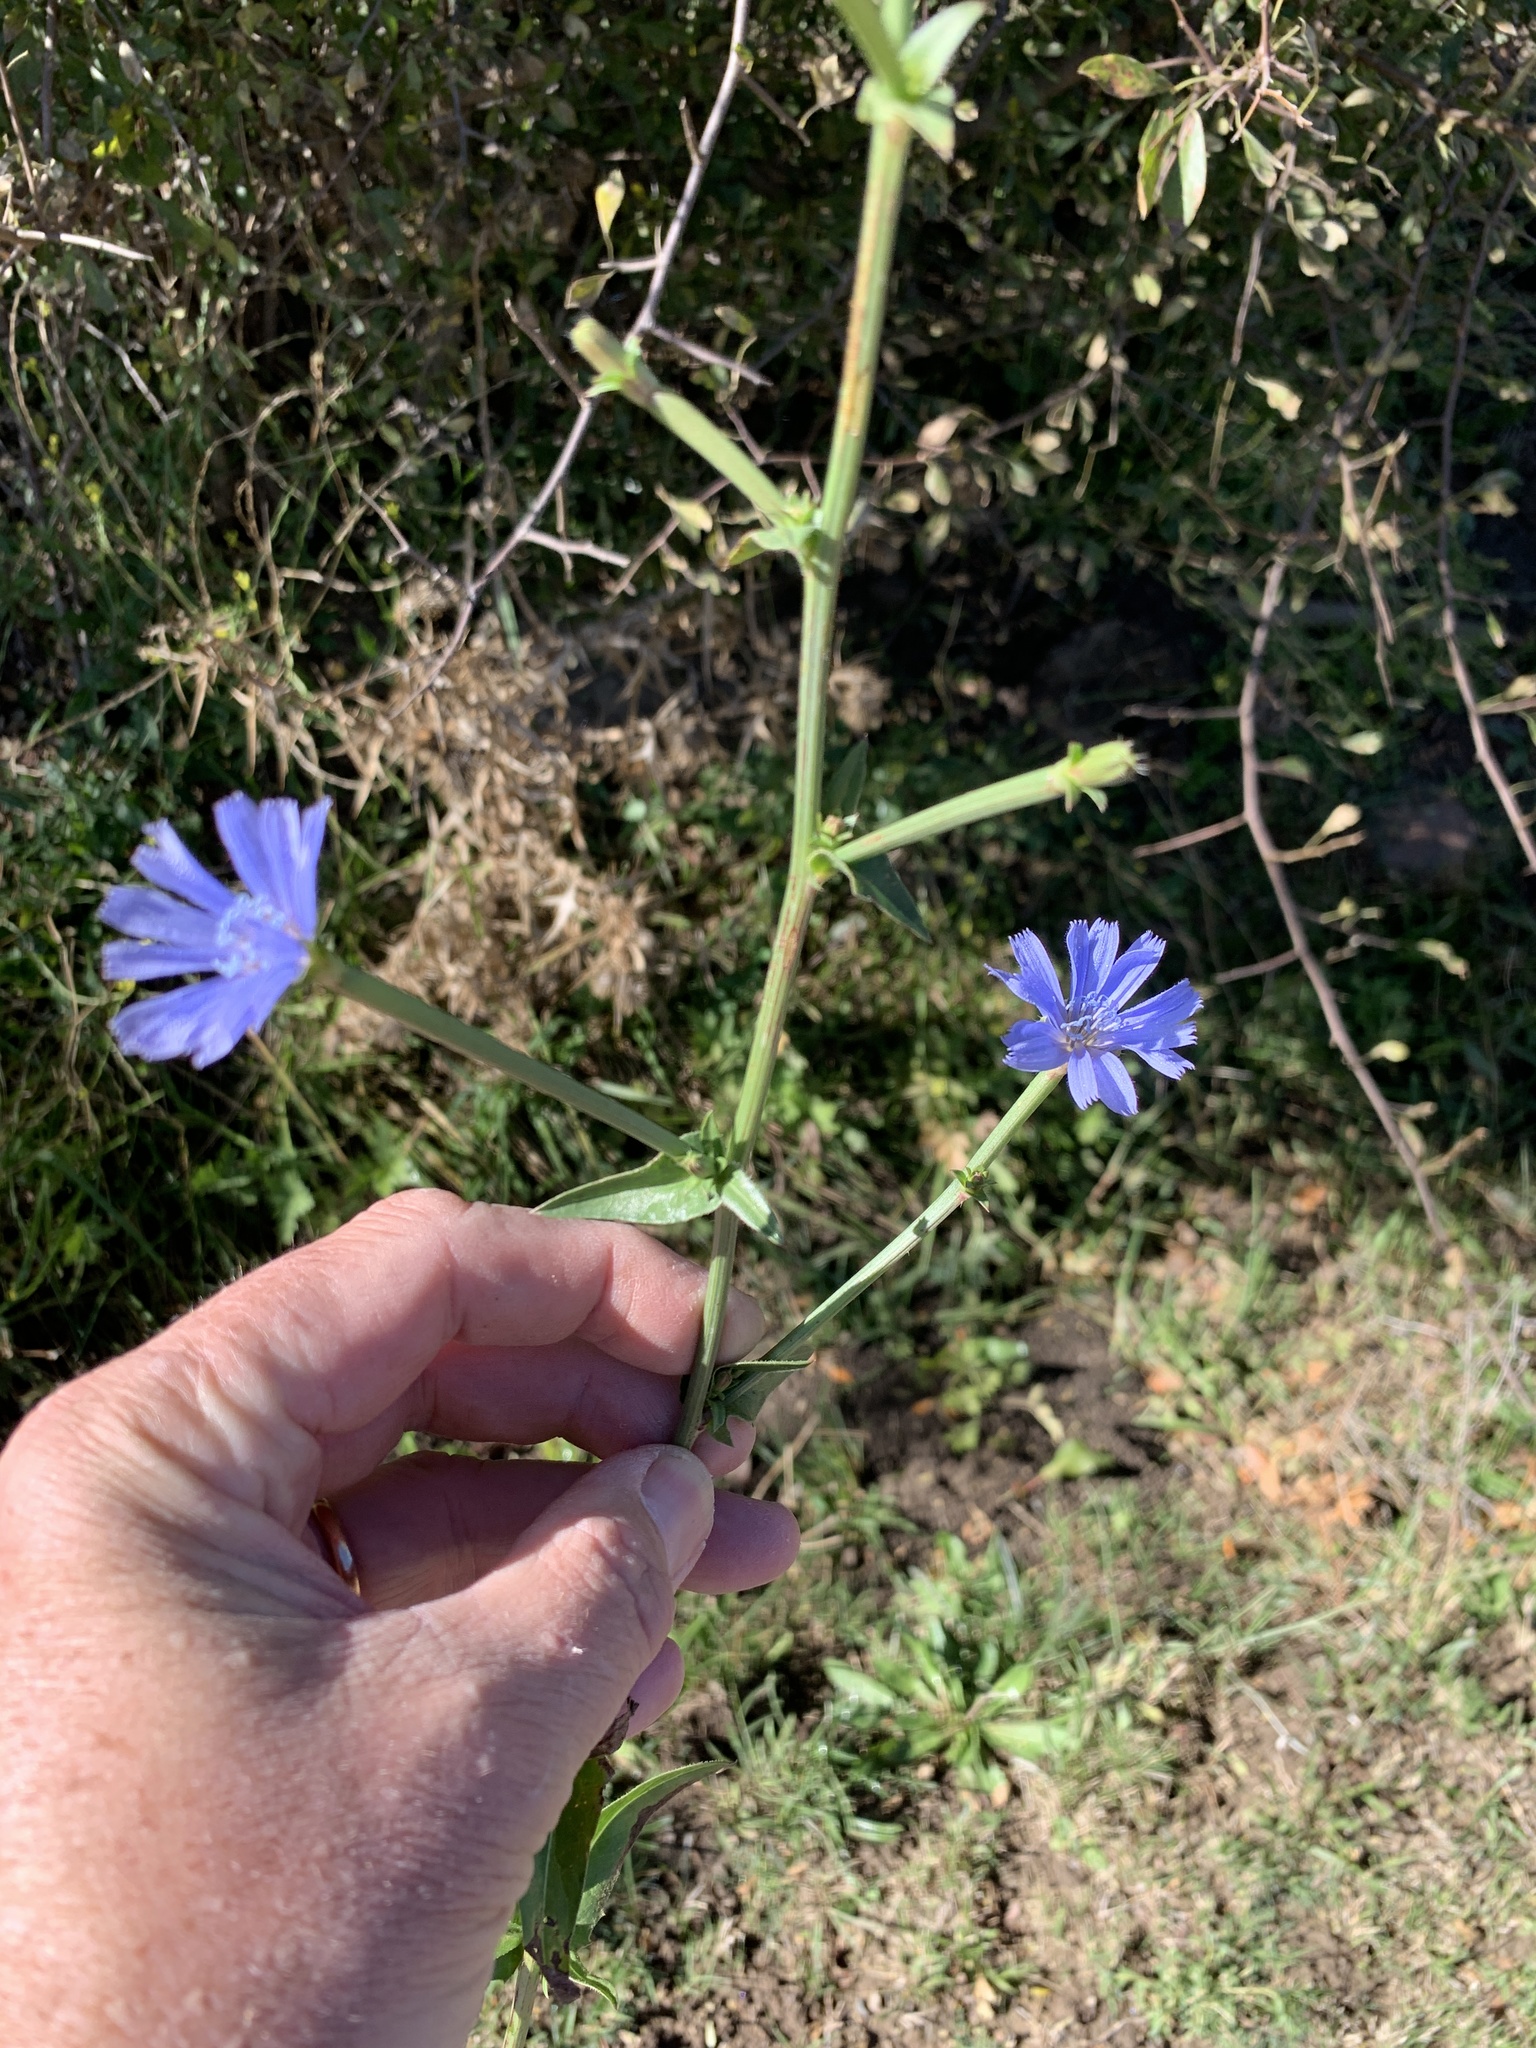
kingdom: Plantae
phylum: Tracheophyta
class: Magnoliopsida
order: Asterales
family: Asteraceae
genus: Cichorium
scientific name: Cichorium intybus
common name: Chicory
